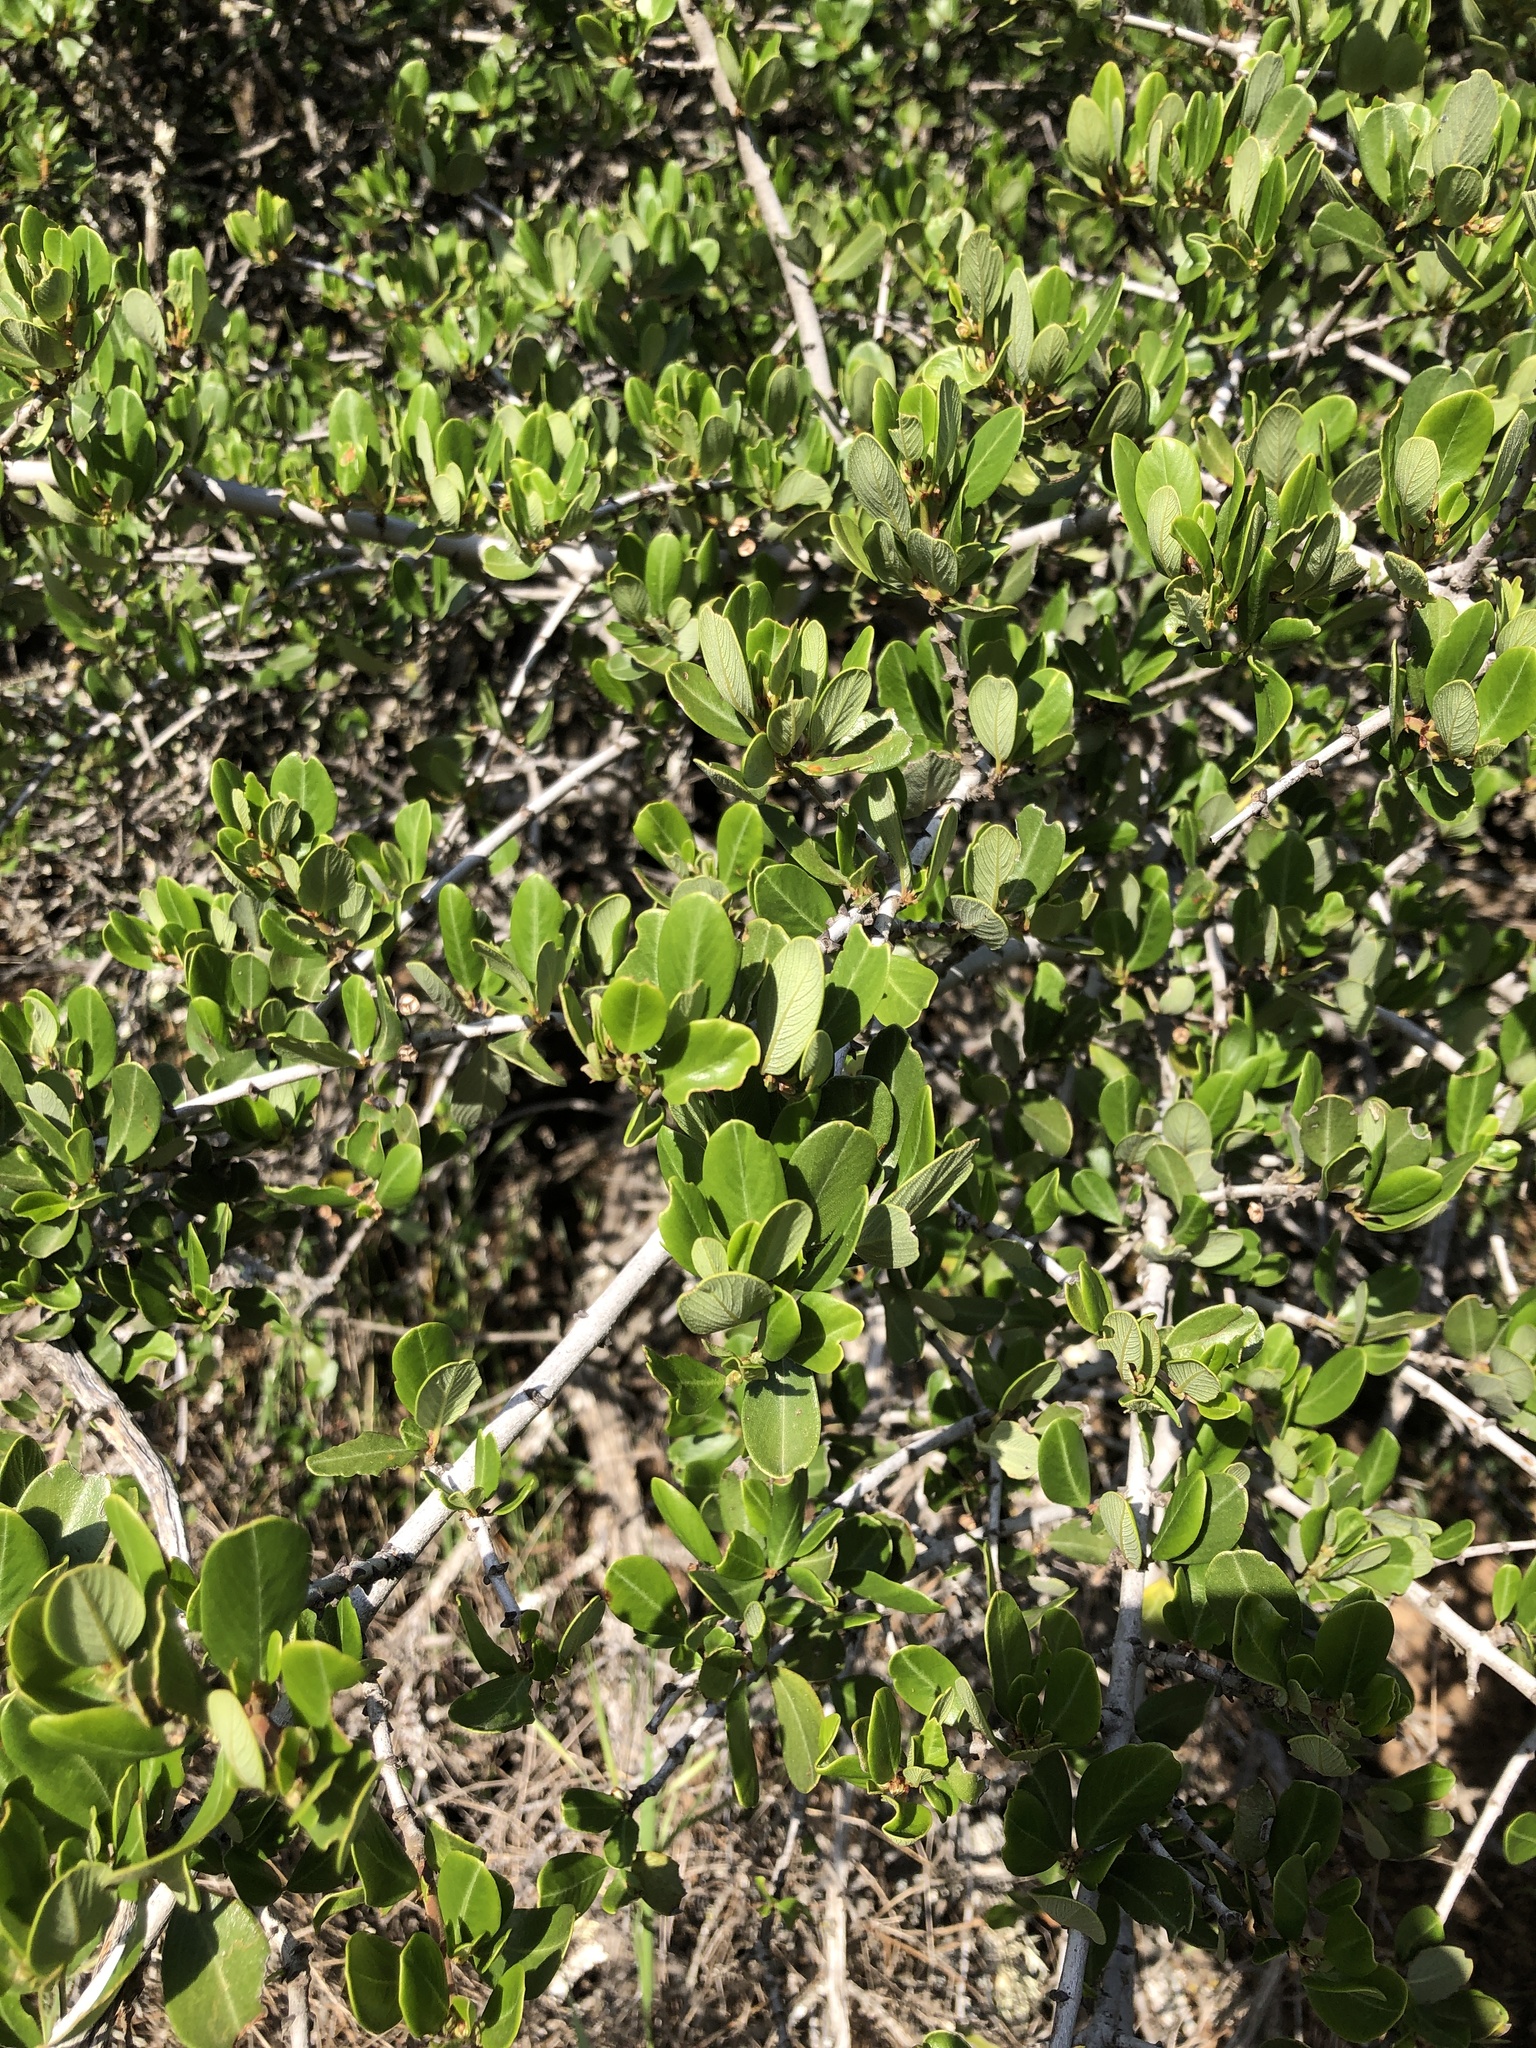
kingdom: Plantae
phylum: Tracheophyta
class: Magnoliopsida
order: Rosales
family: Rhamnaceae
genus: Ceanothus
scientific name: Ceanothus cuneatus
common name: Cuneate ceanothus
